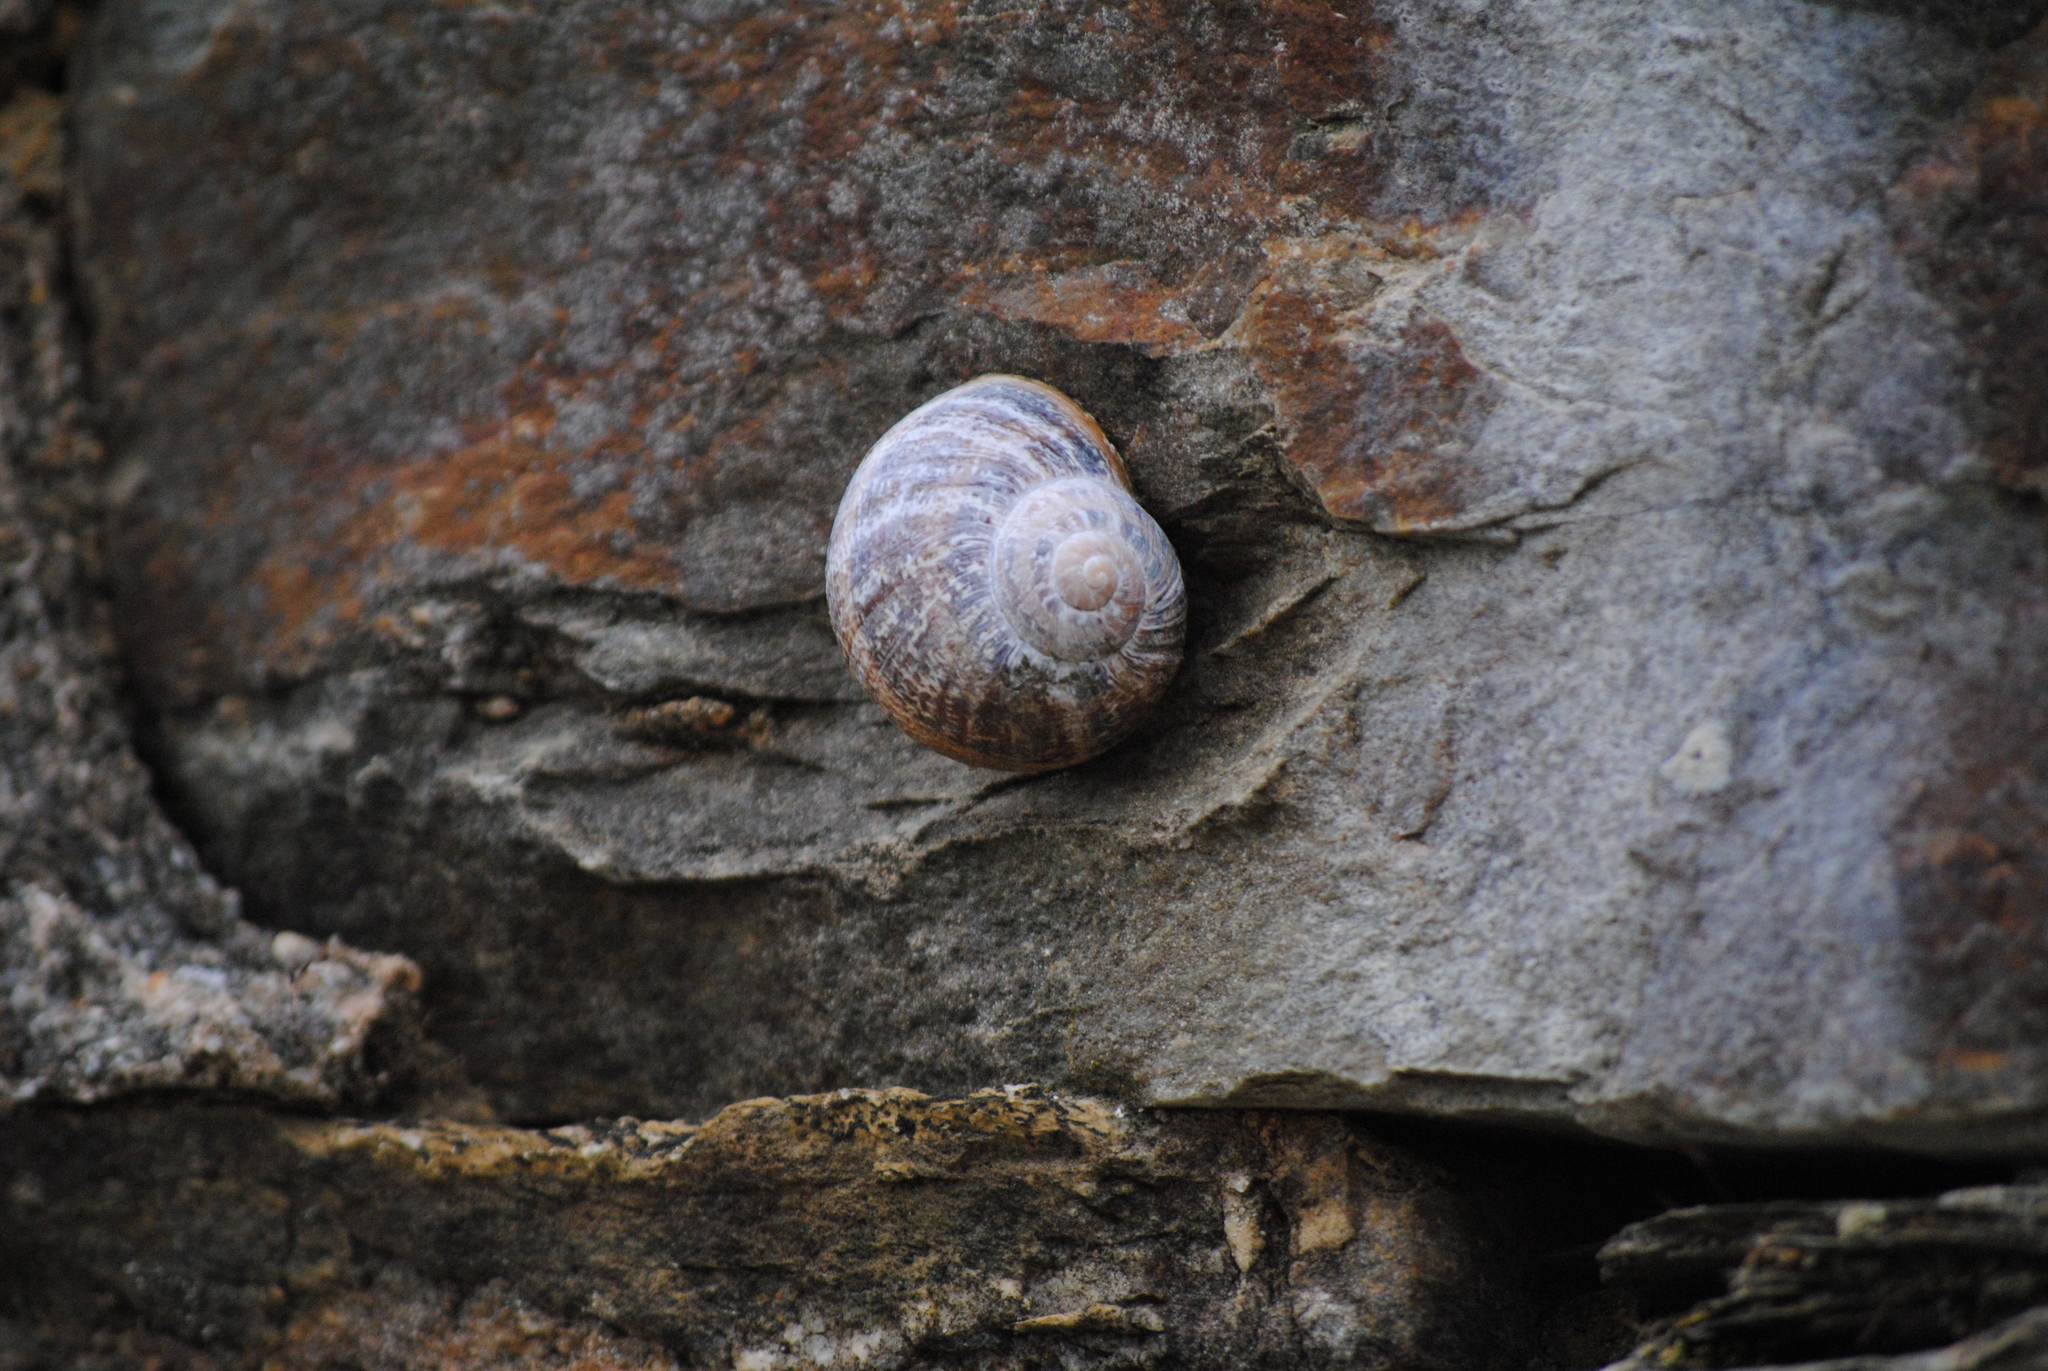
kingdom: Animalia
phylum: Mollusca
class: Gastropoda
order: Stylommatophora
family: Helicidae
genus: Cornu
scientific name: Cornu aspersum
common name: Brown garden snail
